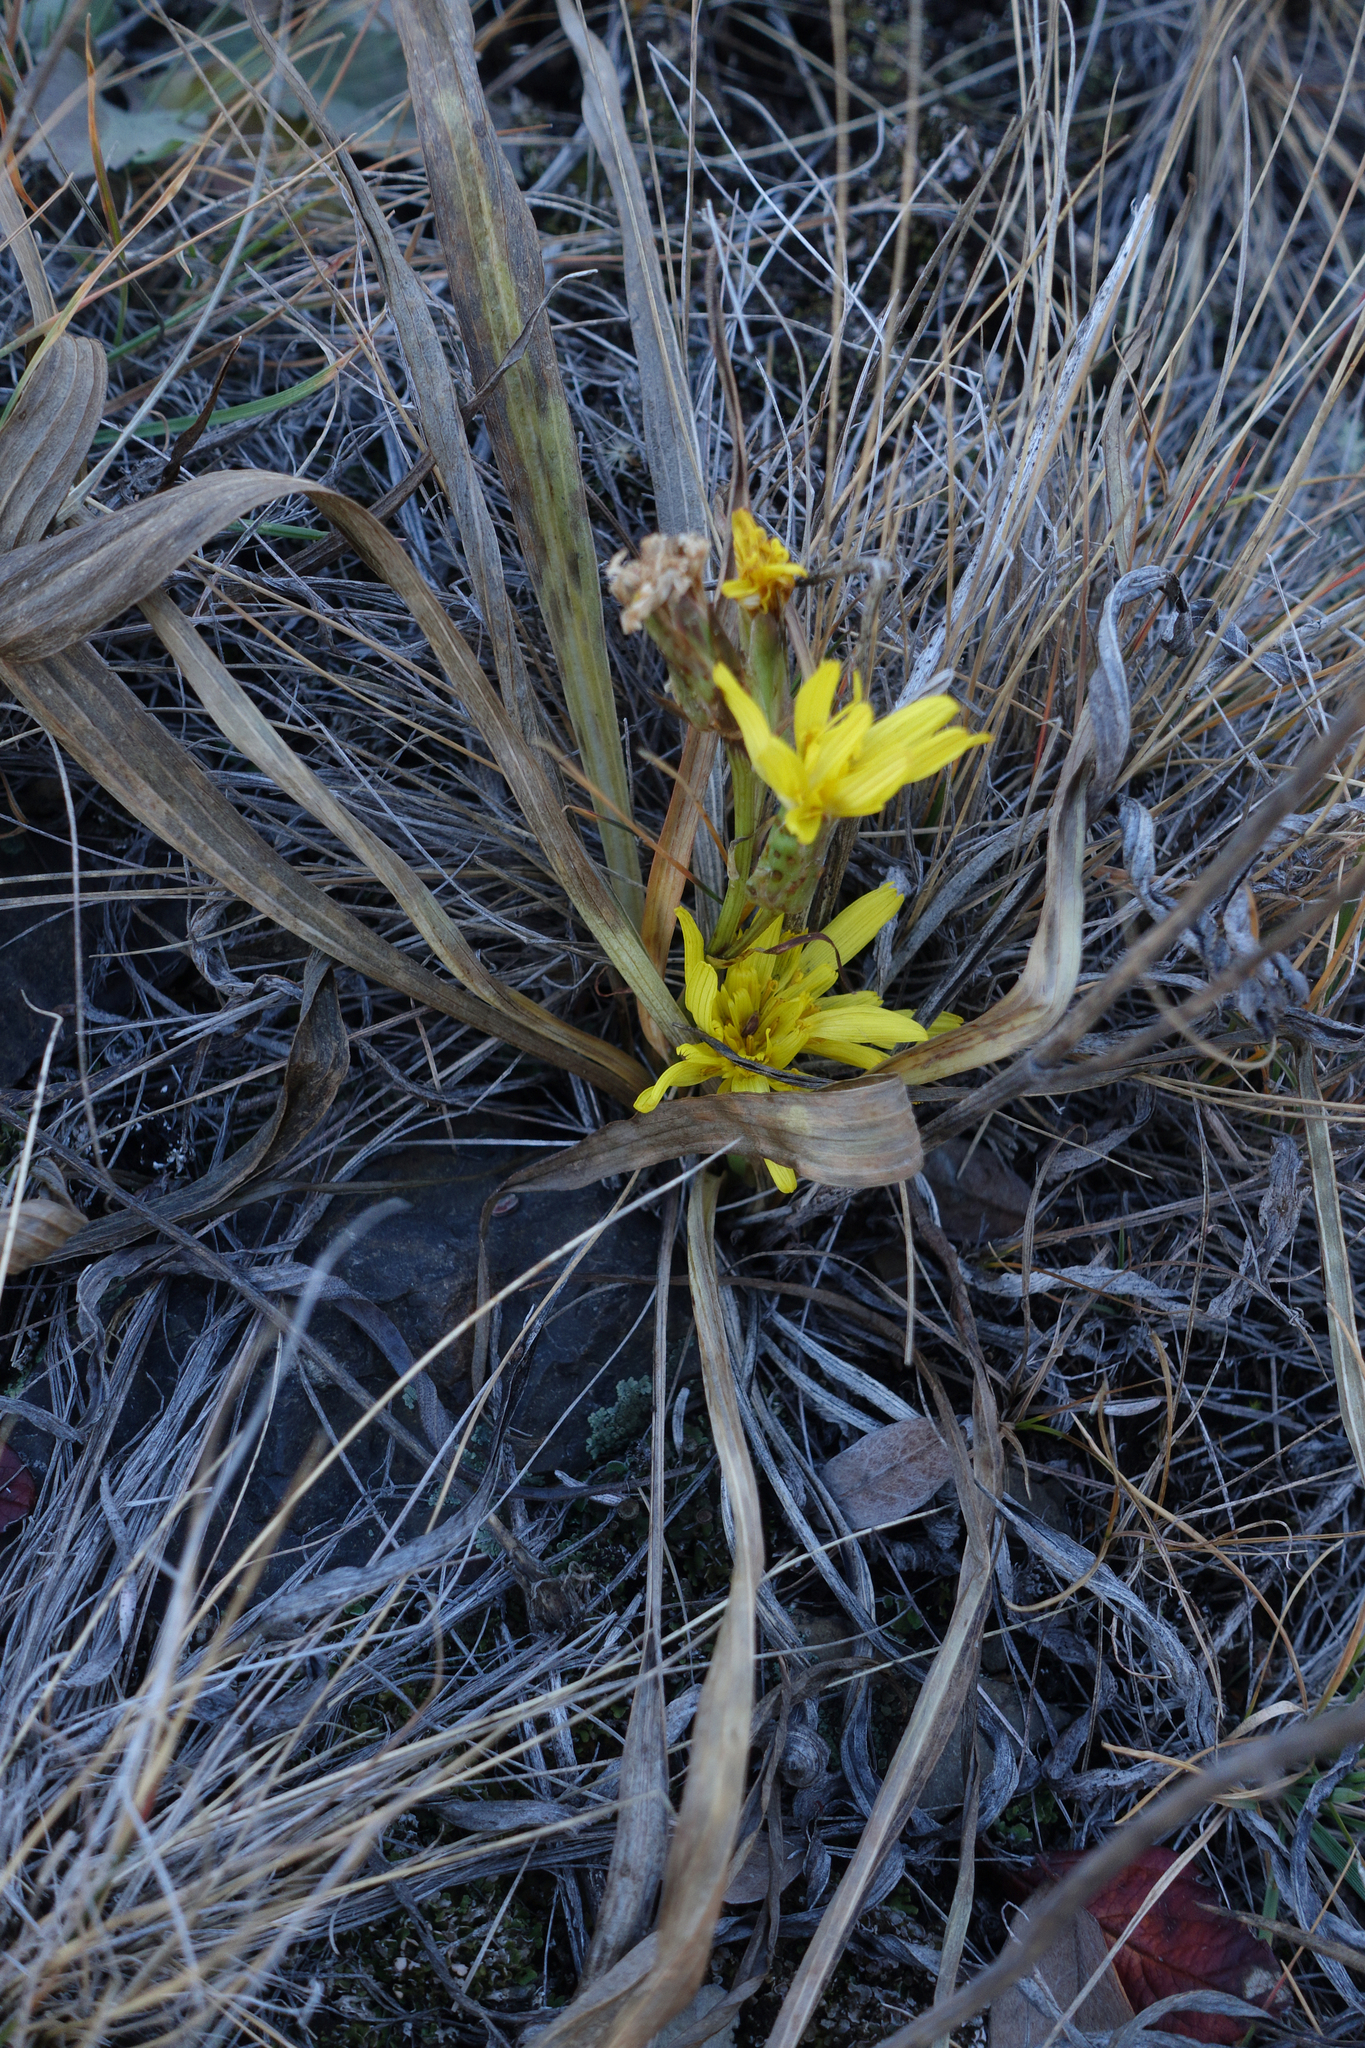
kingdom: Plantae
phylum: Tracheophyta
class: Magnoliopsida
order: Asterales
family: Asteraceae
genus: Takhtajaniantha
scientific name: Takhtajaniantha austriaca
